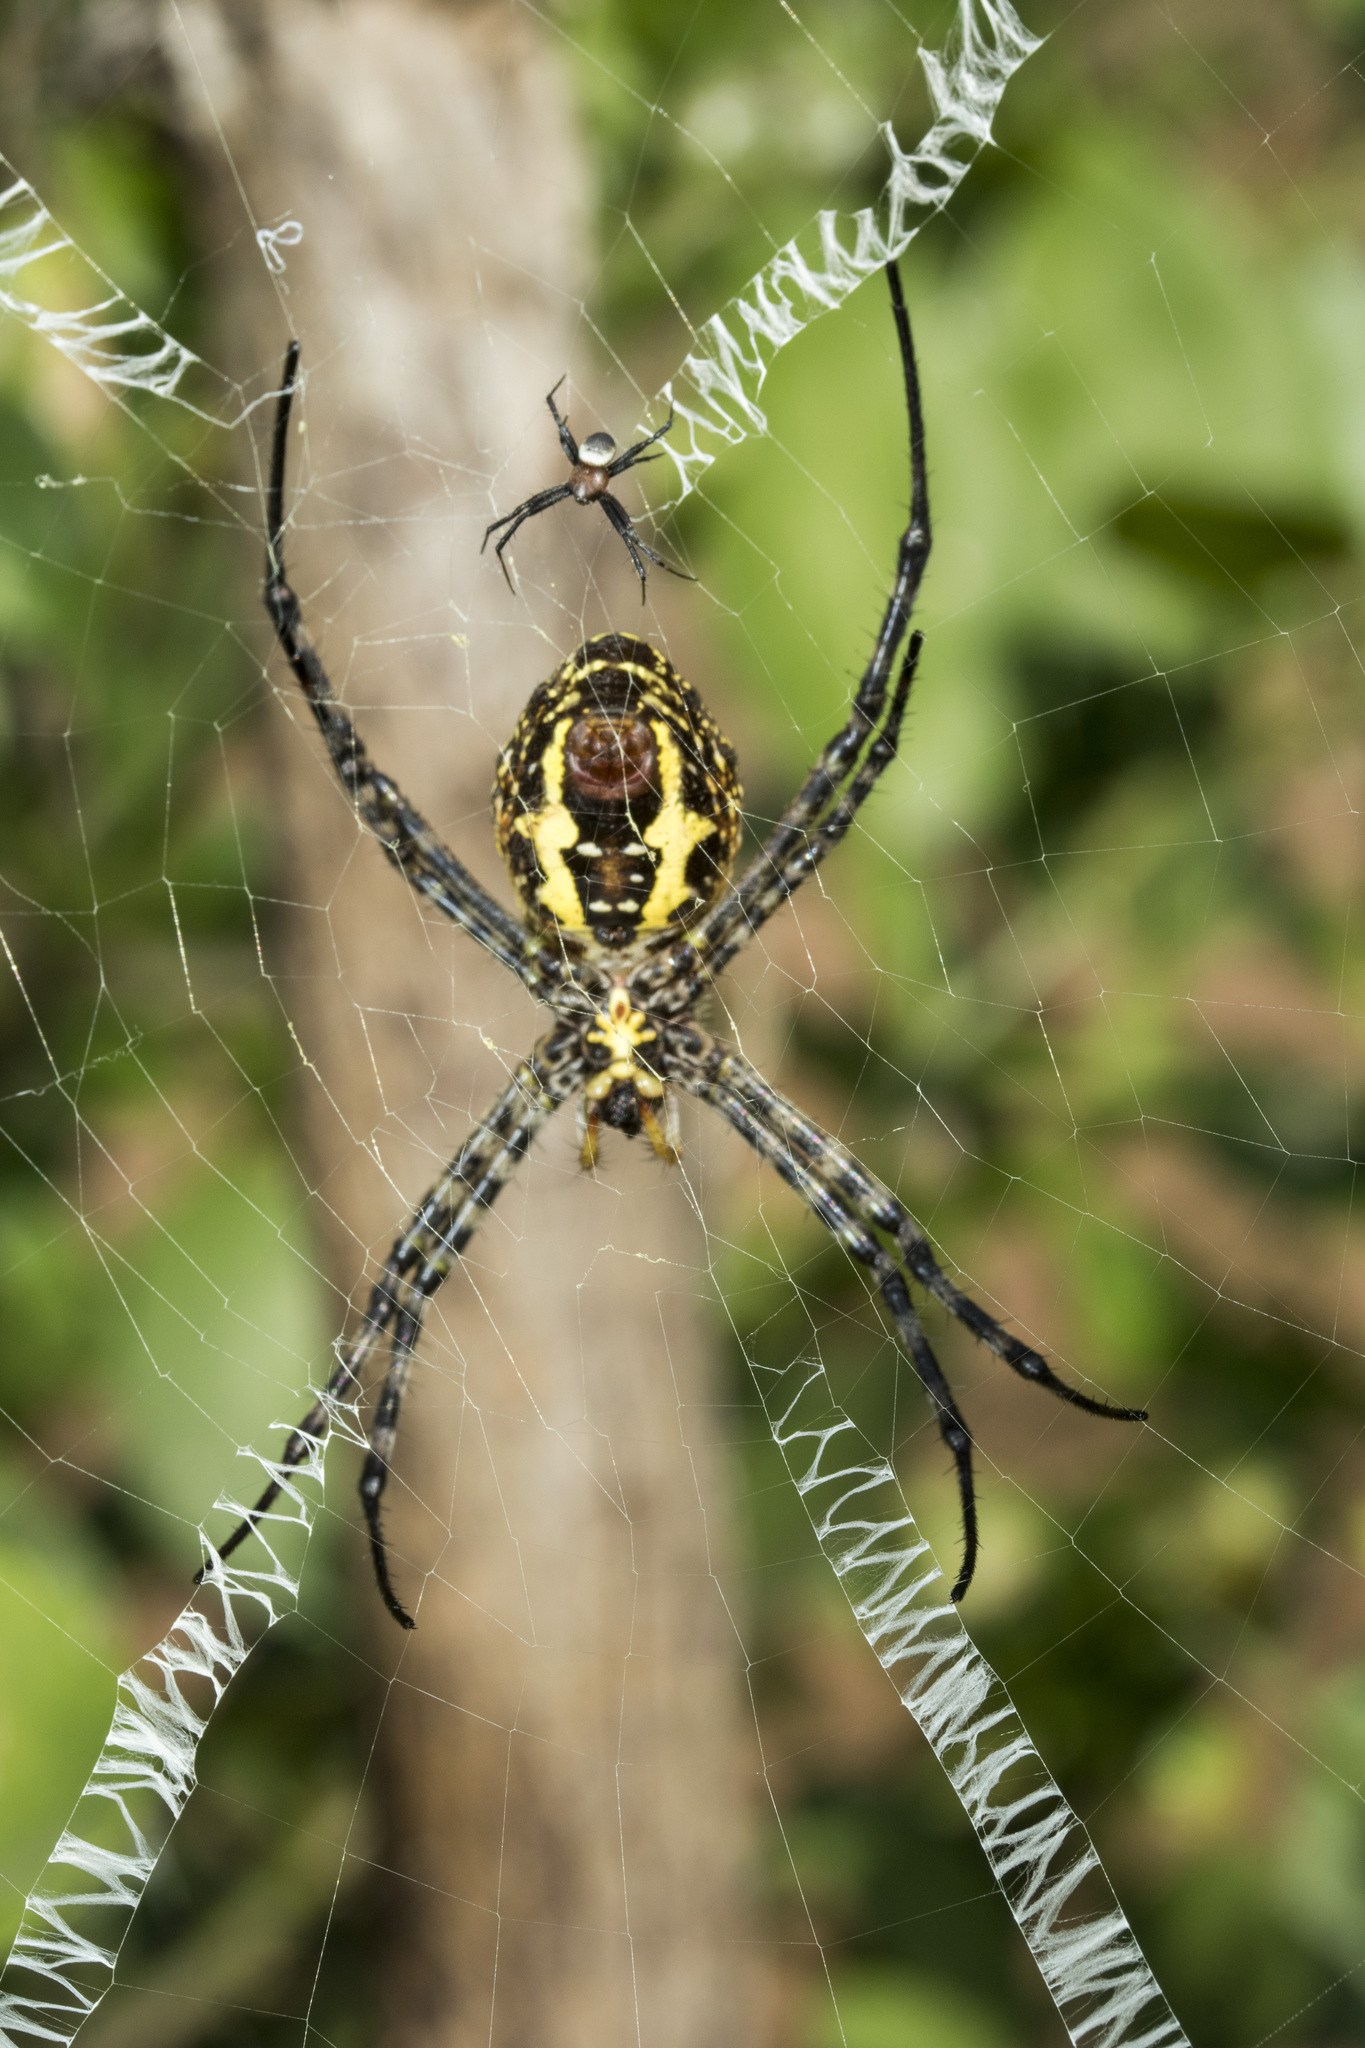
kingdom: Animalia
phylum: Arthropoda
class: Arachnida
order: Araneae
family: Araneidae
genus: Argiope
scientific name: Argiope aemula
